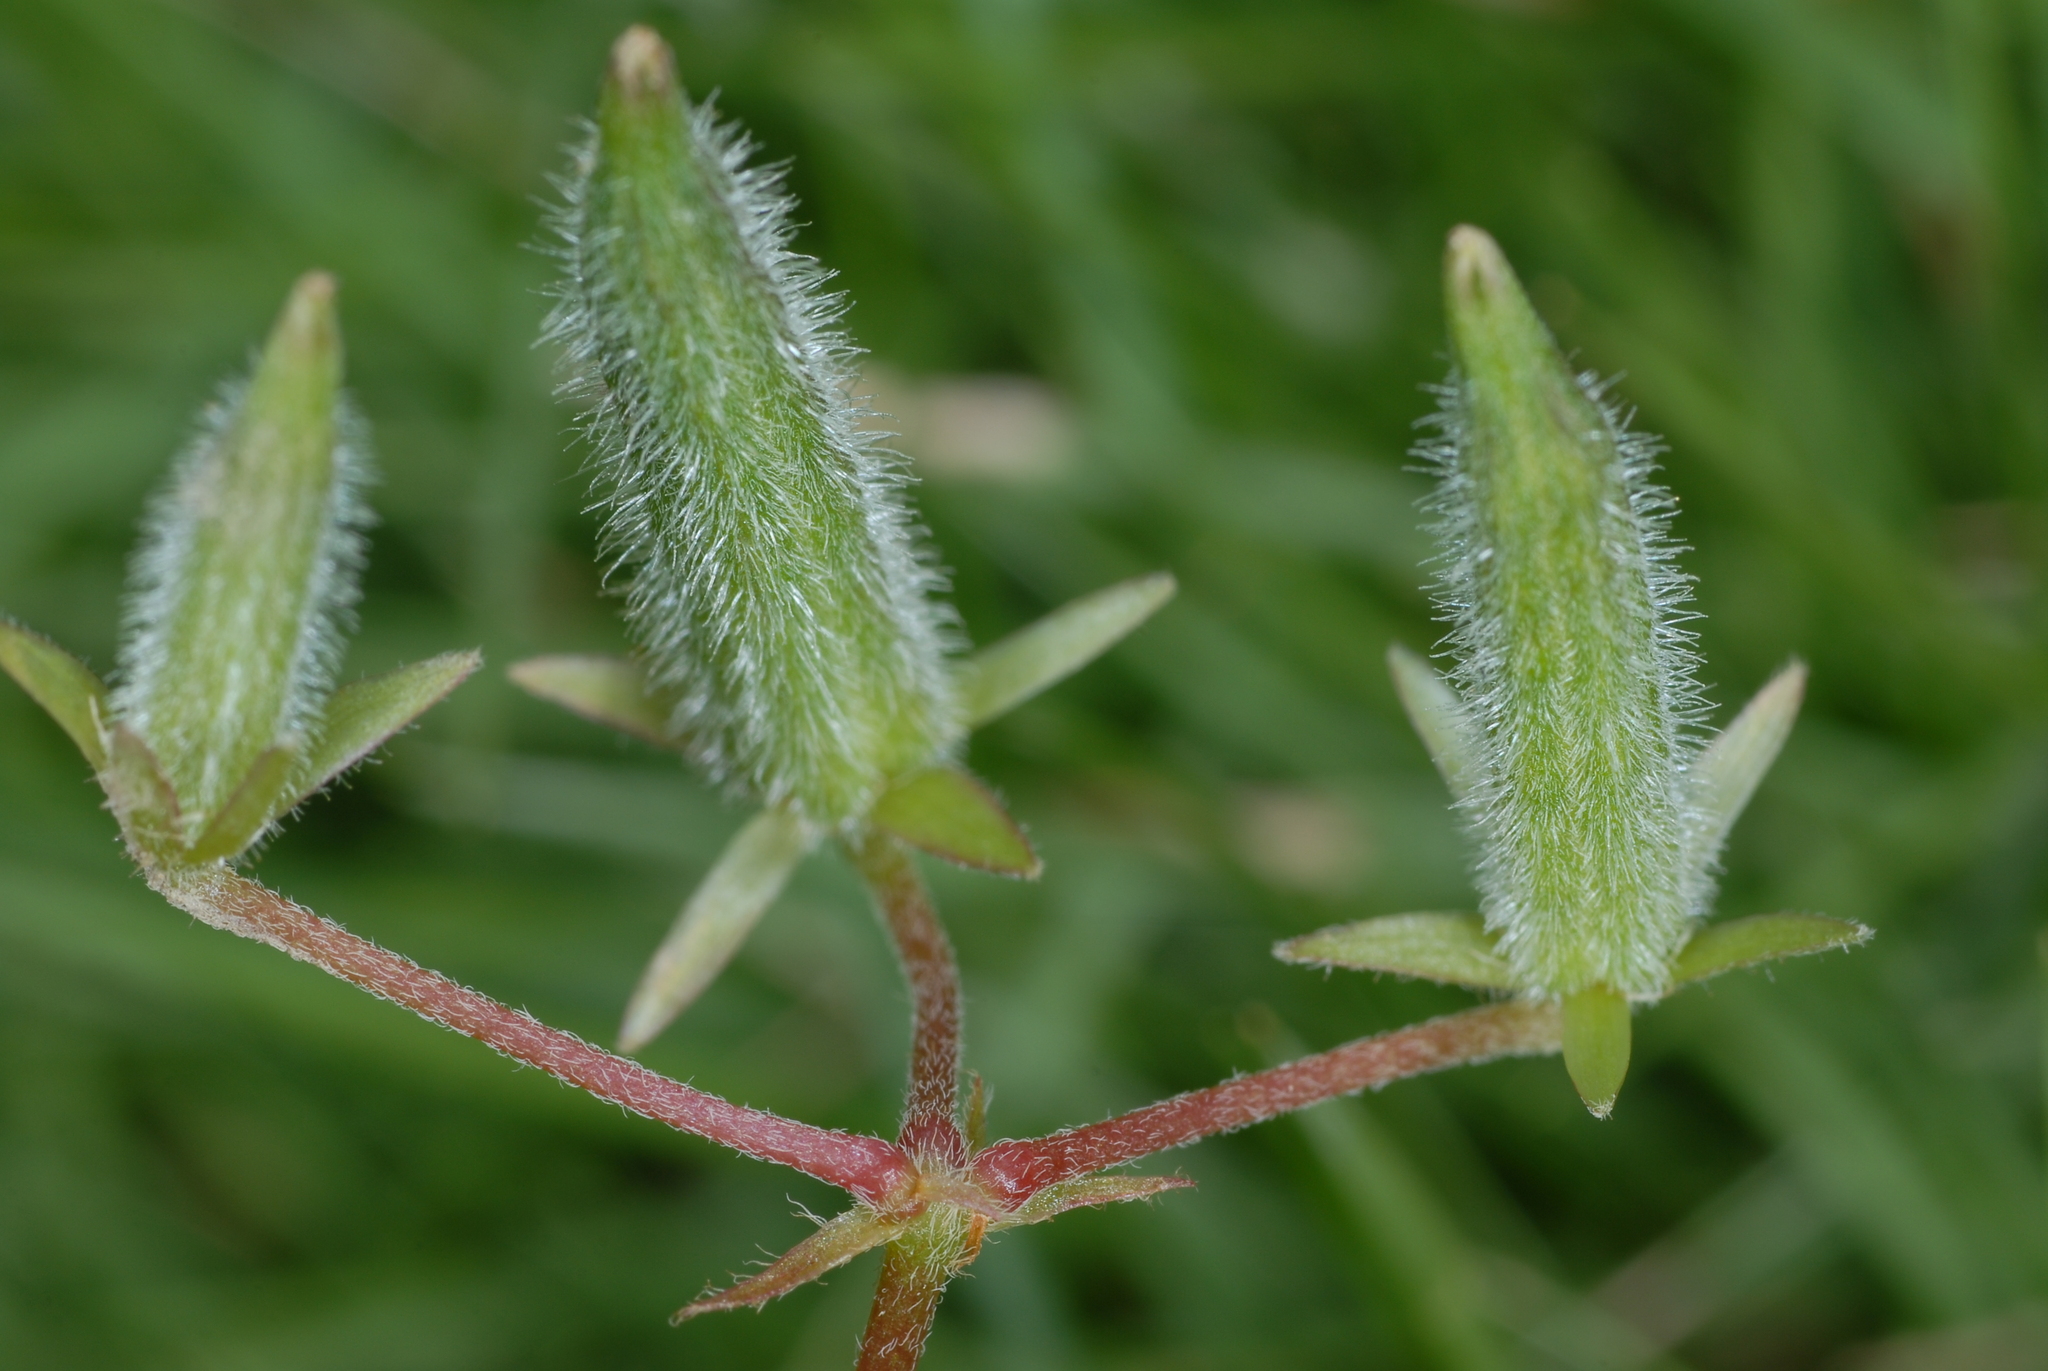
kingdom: Plantae
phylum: Tracheophyta
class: Magnoliopsida
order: Oxalidales
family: Oxalidaceae
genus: Oxalis
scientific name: Oxalis corniculata
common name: Procumbent yellow-sorrel
